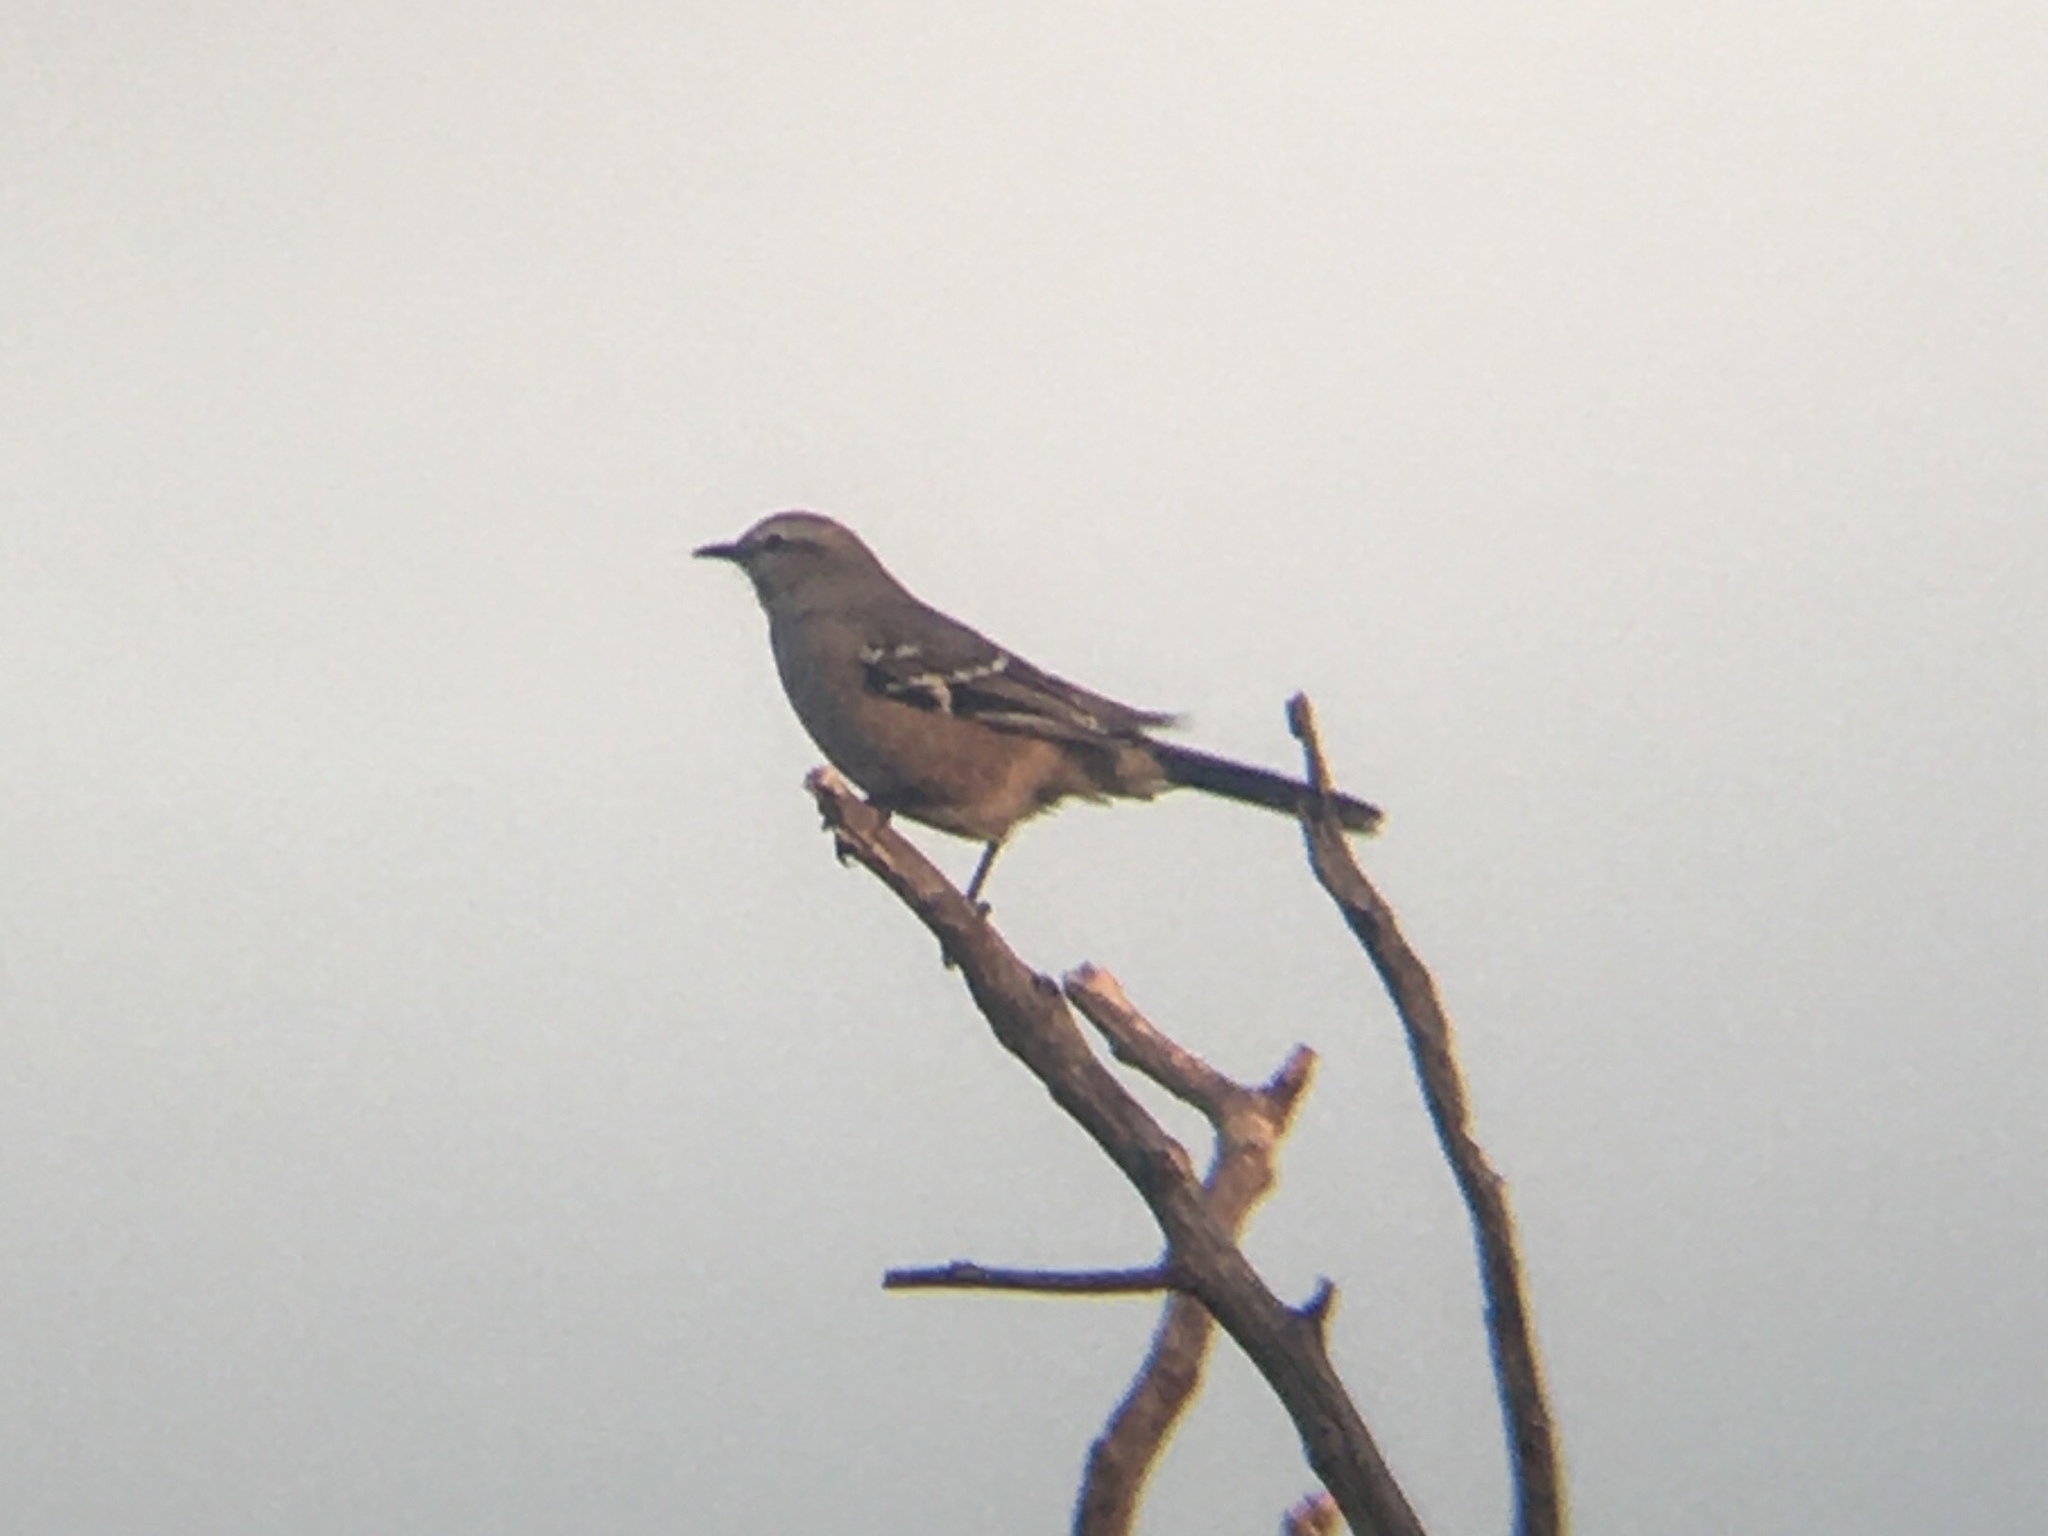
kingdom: Animalia
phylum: Chordata
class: Aves
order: Passeriformes
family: Mimidae
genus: Mimus
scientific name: Mimus patagonicus
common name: Patagonian mockingbird
